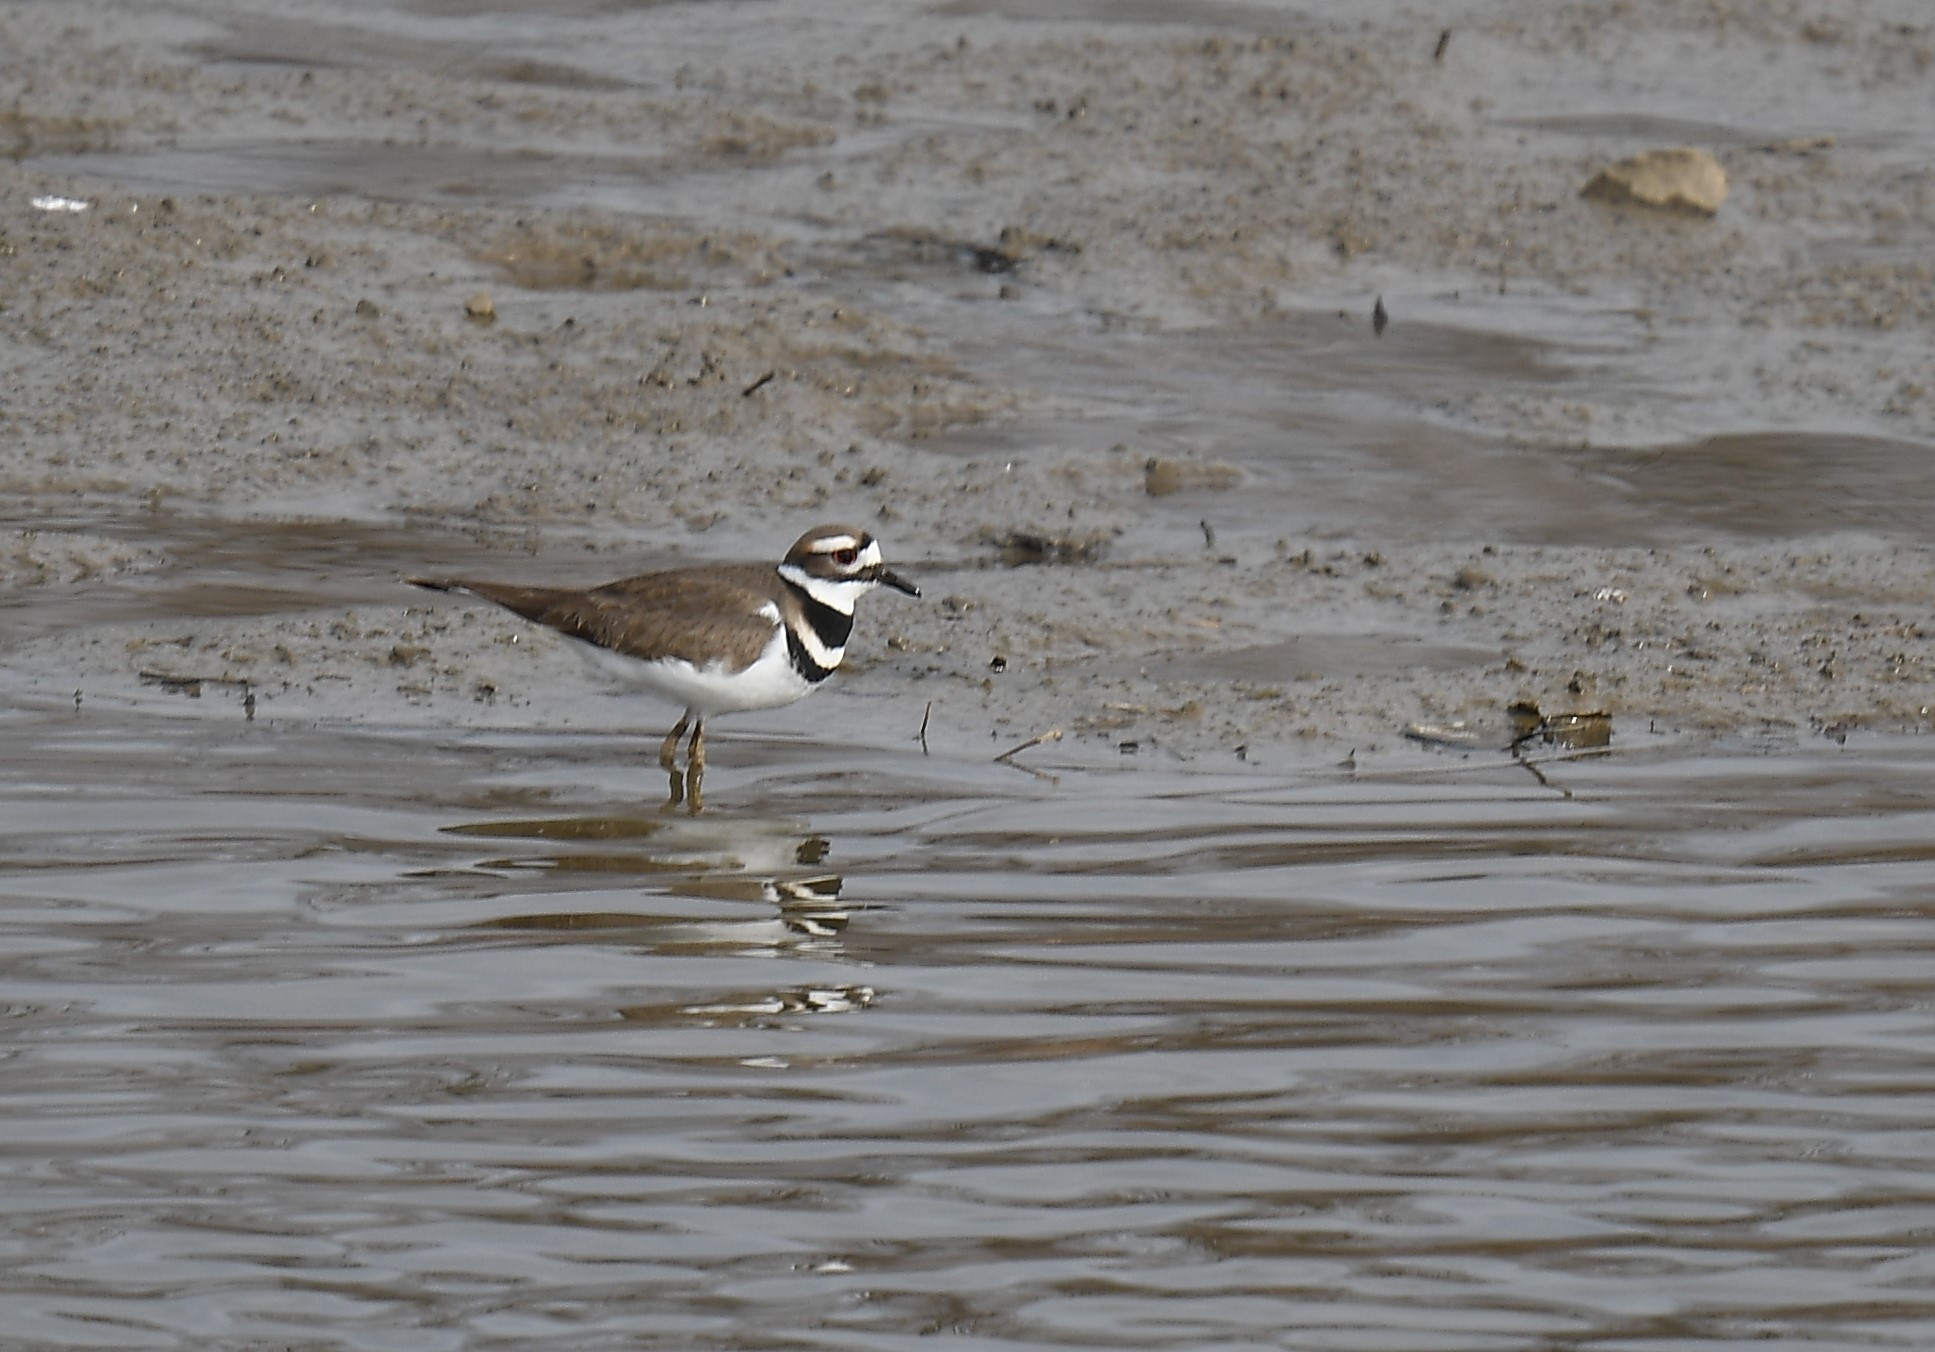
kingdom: Animalia
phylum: Chordata
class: Aves
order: Charadriiformes
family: Charadriidae
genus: Charadrius
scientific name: Charadrius vociferus
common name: Killdeer
